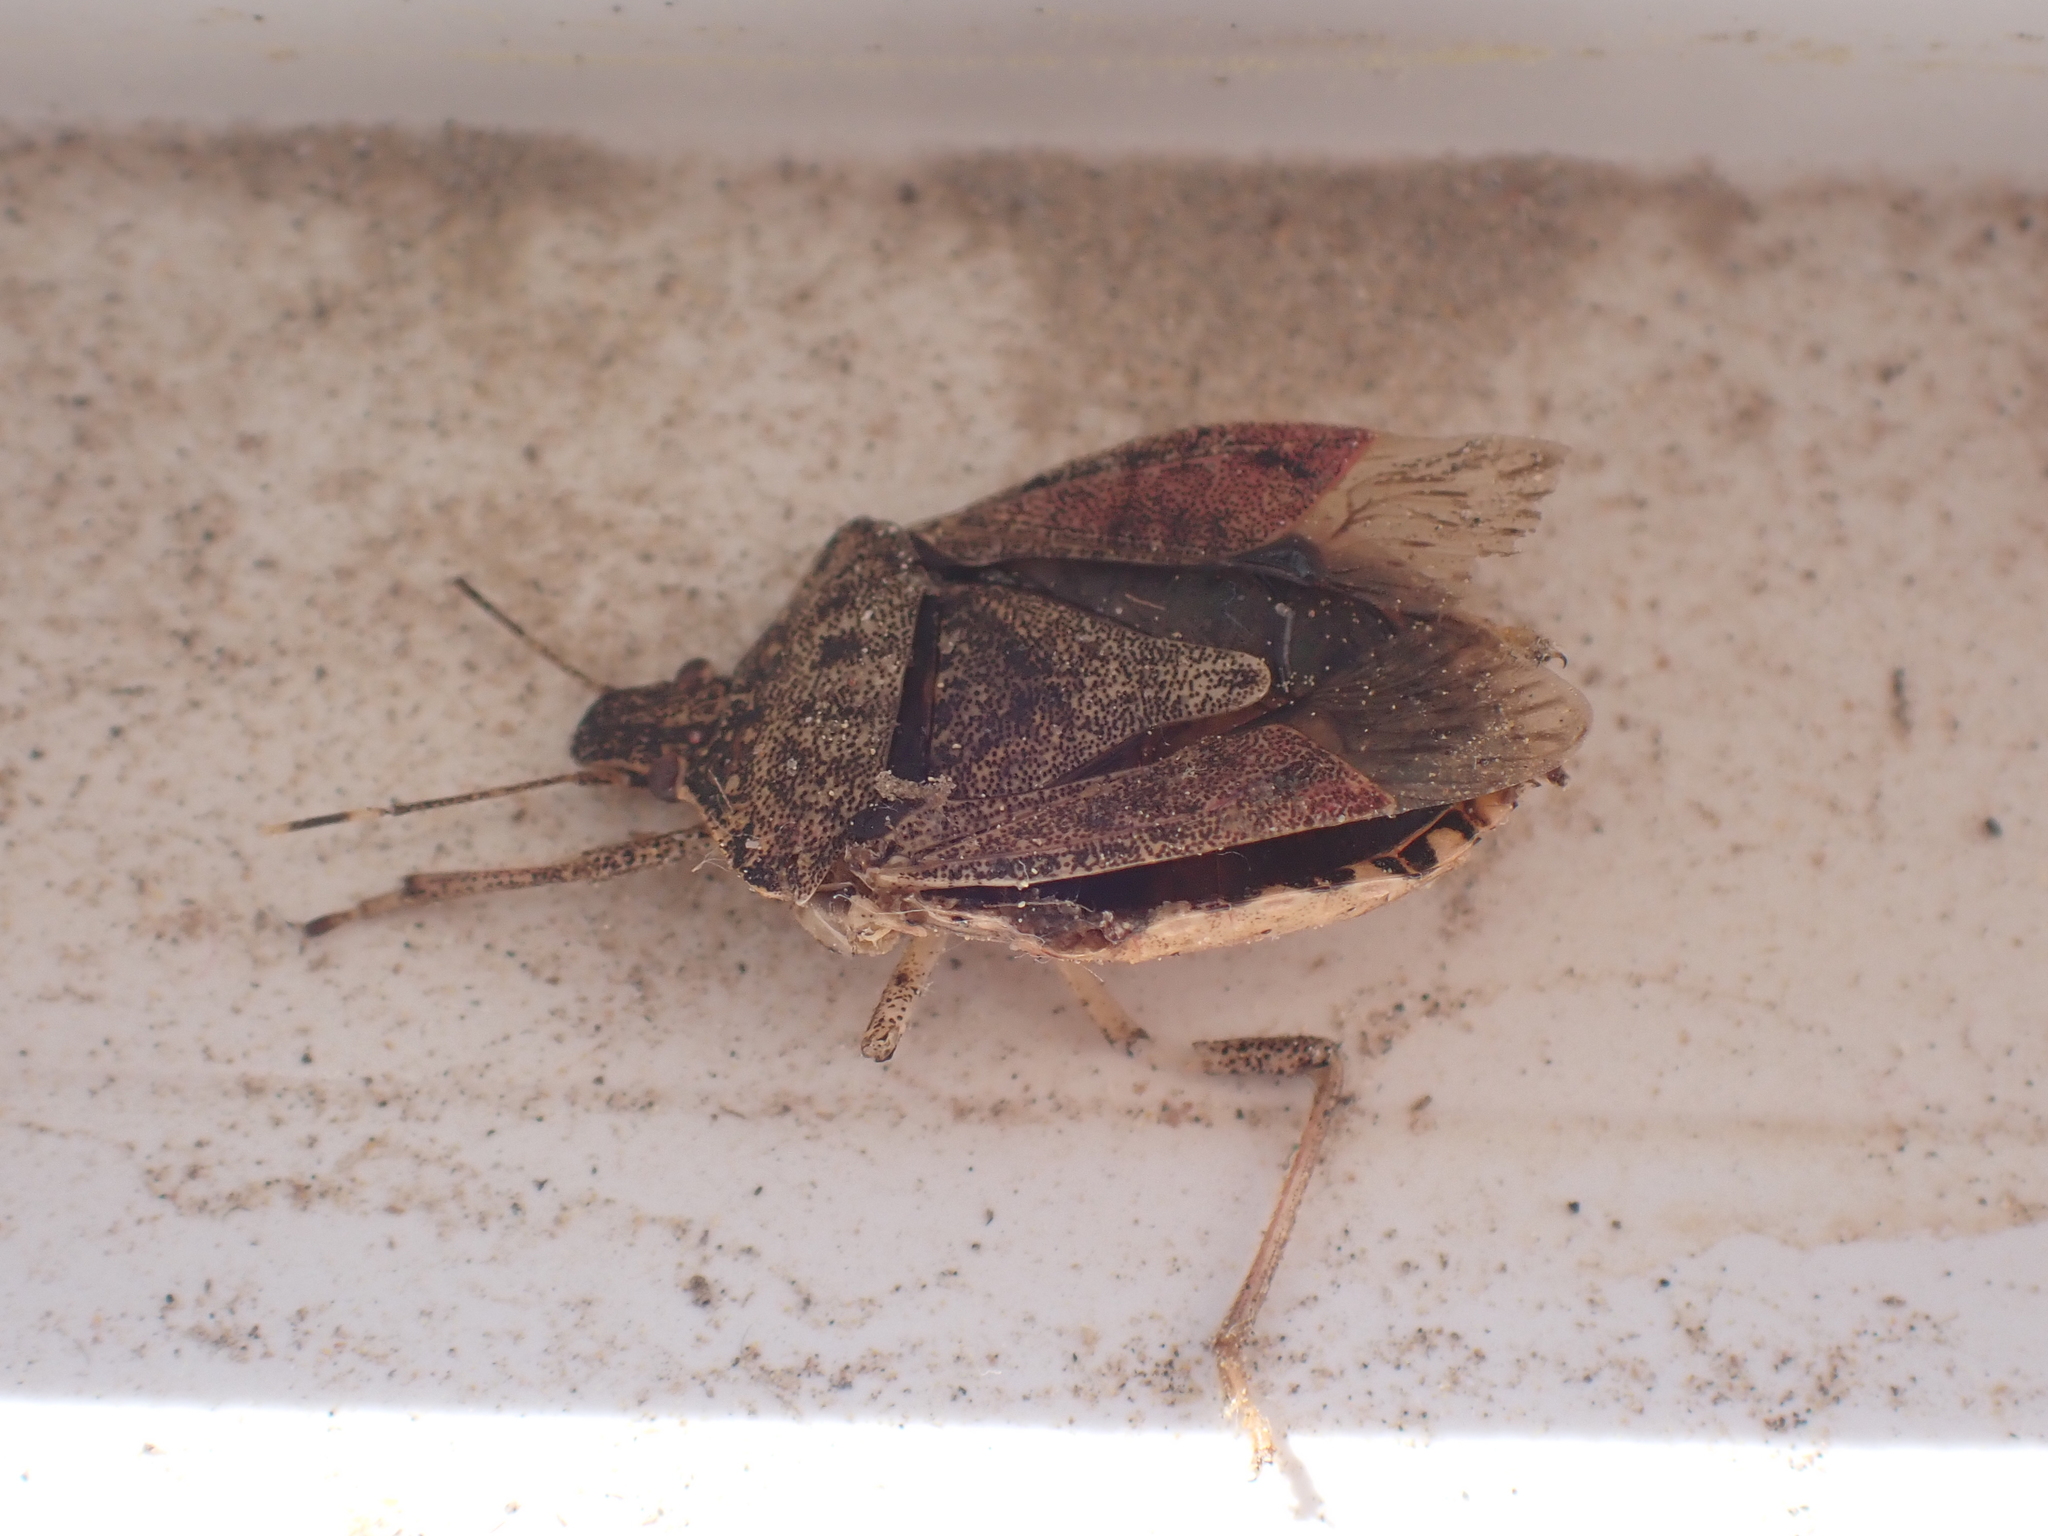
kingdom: Animalia
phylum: Arthropoda
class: Insecta
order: Hemiptera
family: Pentatomidae
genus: Halyomorpha
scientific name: Halyomorpha halys
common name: Brown marmorated stink bug
